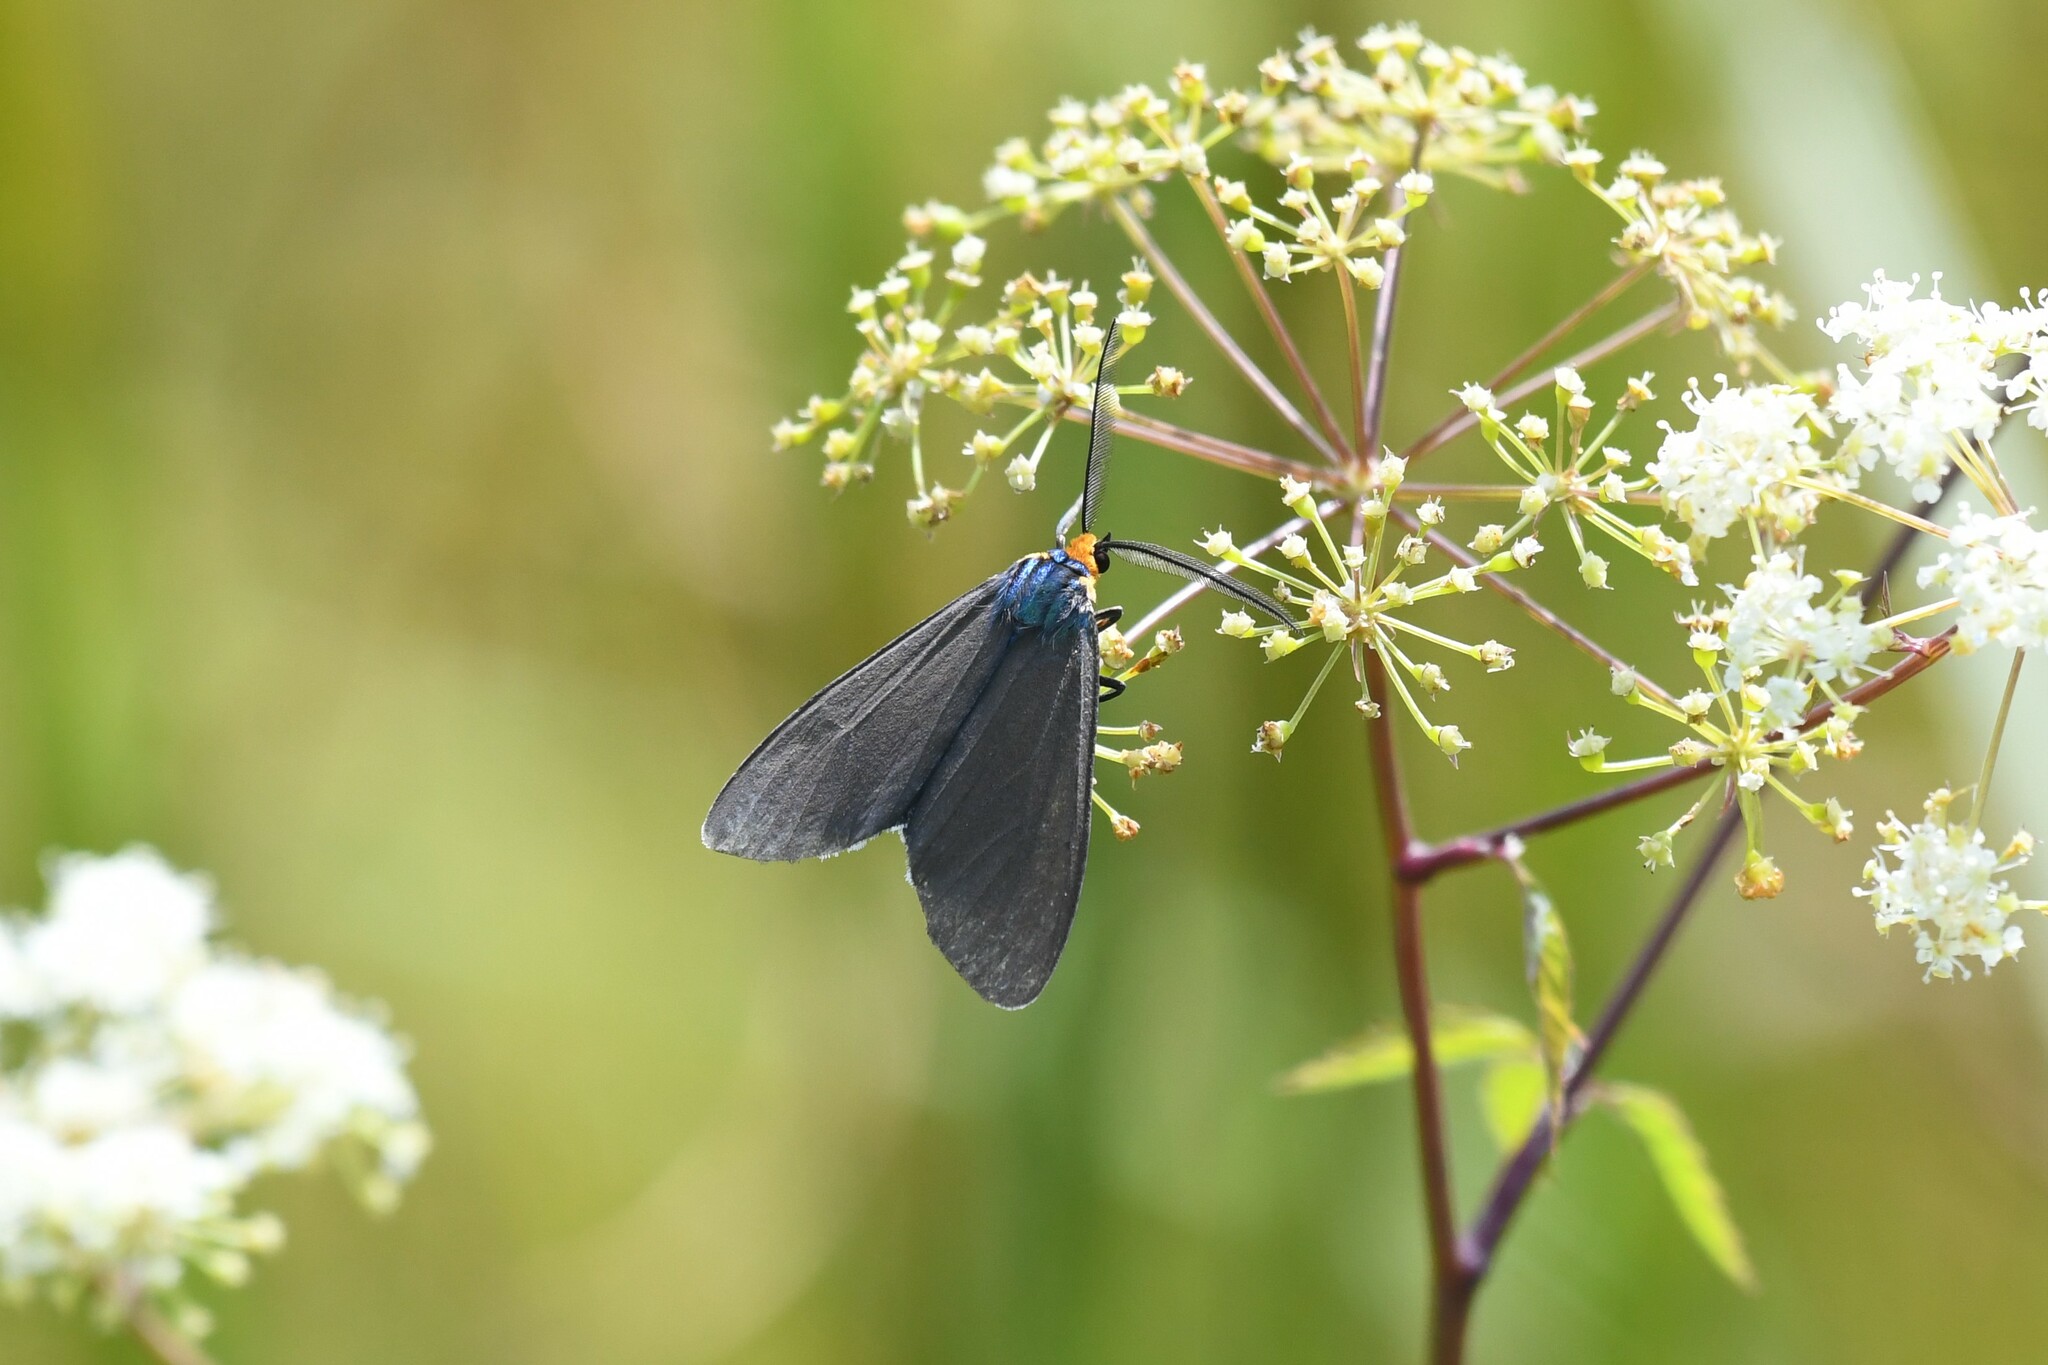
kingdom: Animalia
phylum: Arthropoda
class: Insecta
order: Lepidoptera
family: Erebidae
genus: Ctenucha
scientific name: Ctenucha virginica
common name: Virginia ctenucha moth
